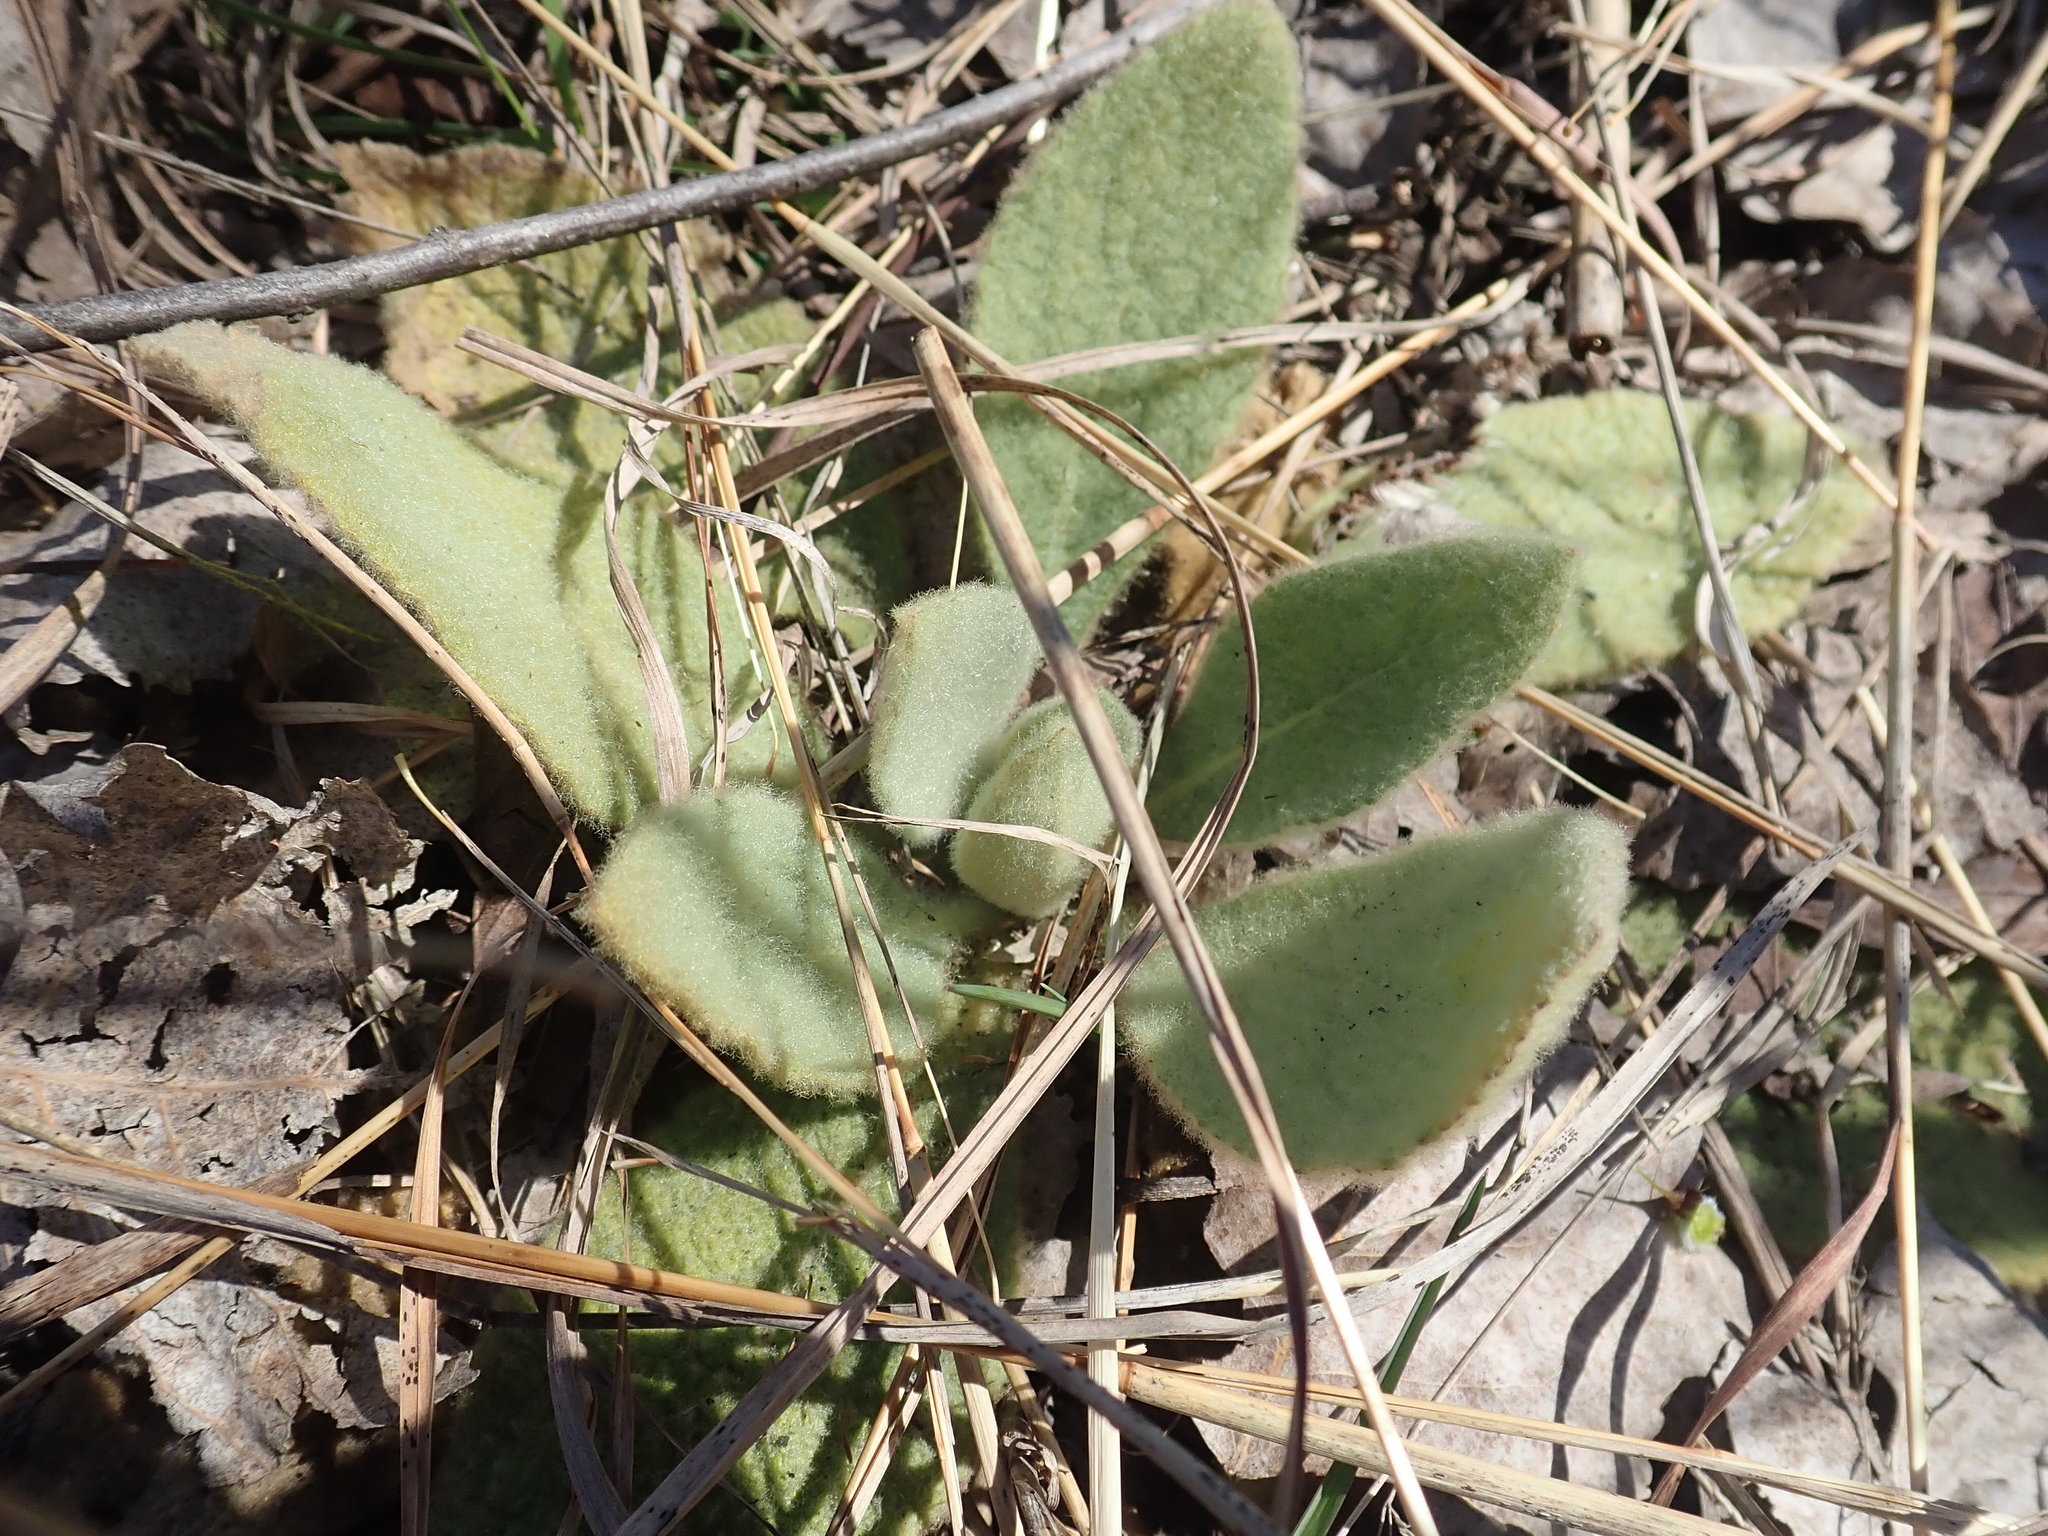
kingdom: Plantae
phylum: Tracheophyta
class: Magnoliopsida
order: Lamiales
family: Scrophulariaceae
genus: Verbascum
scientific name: Verbascum thapsus
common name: Common mullein
